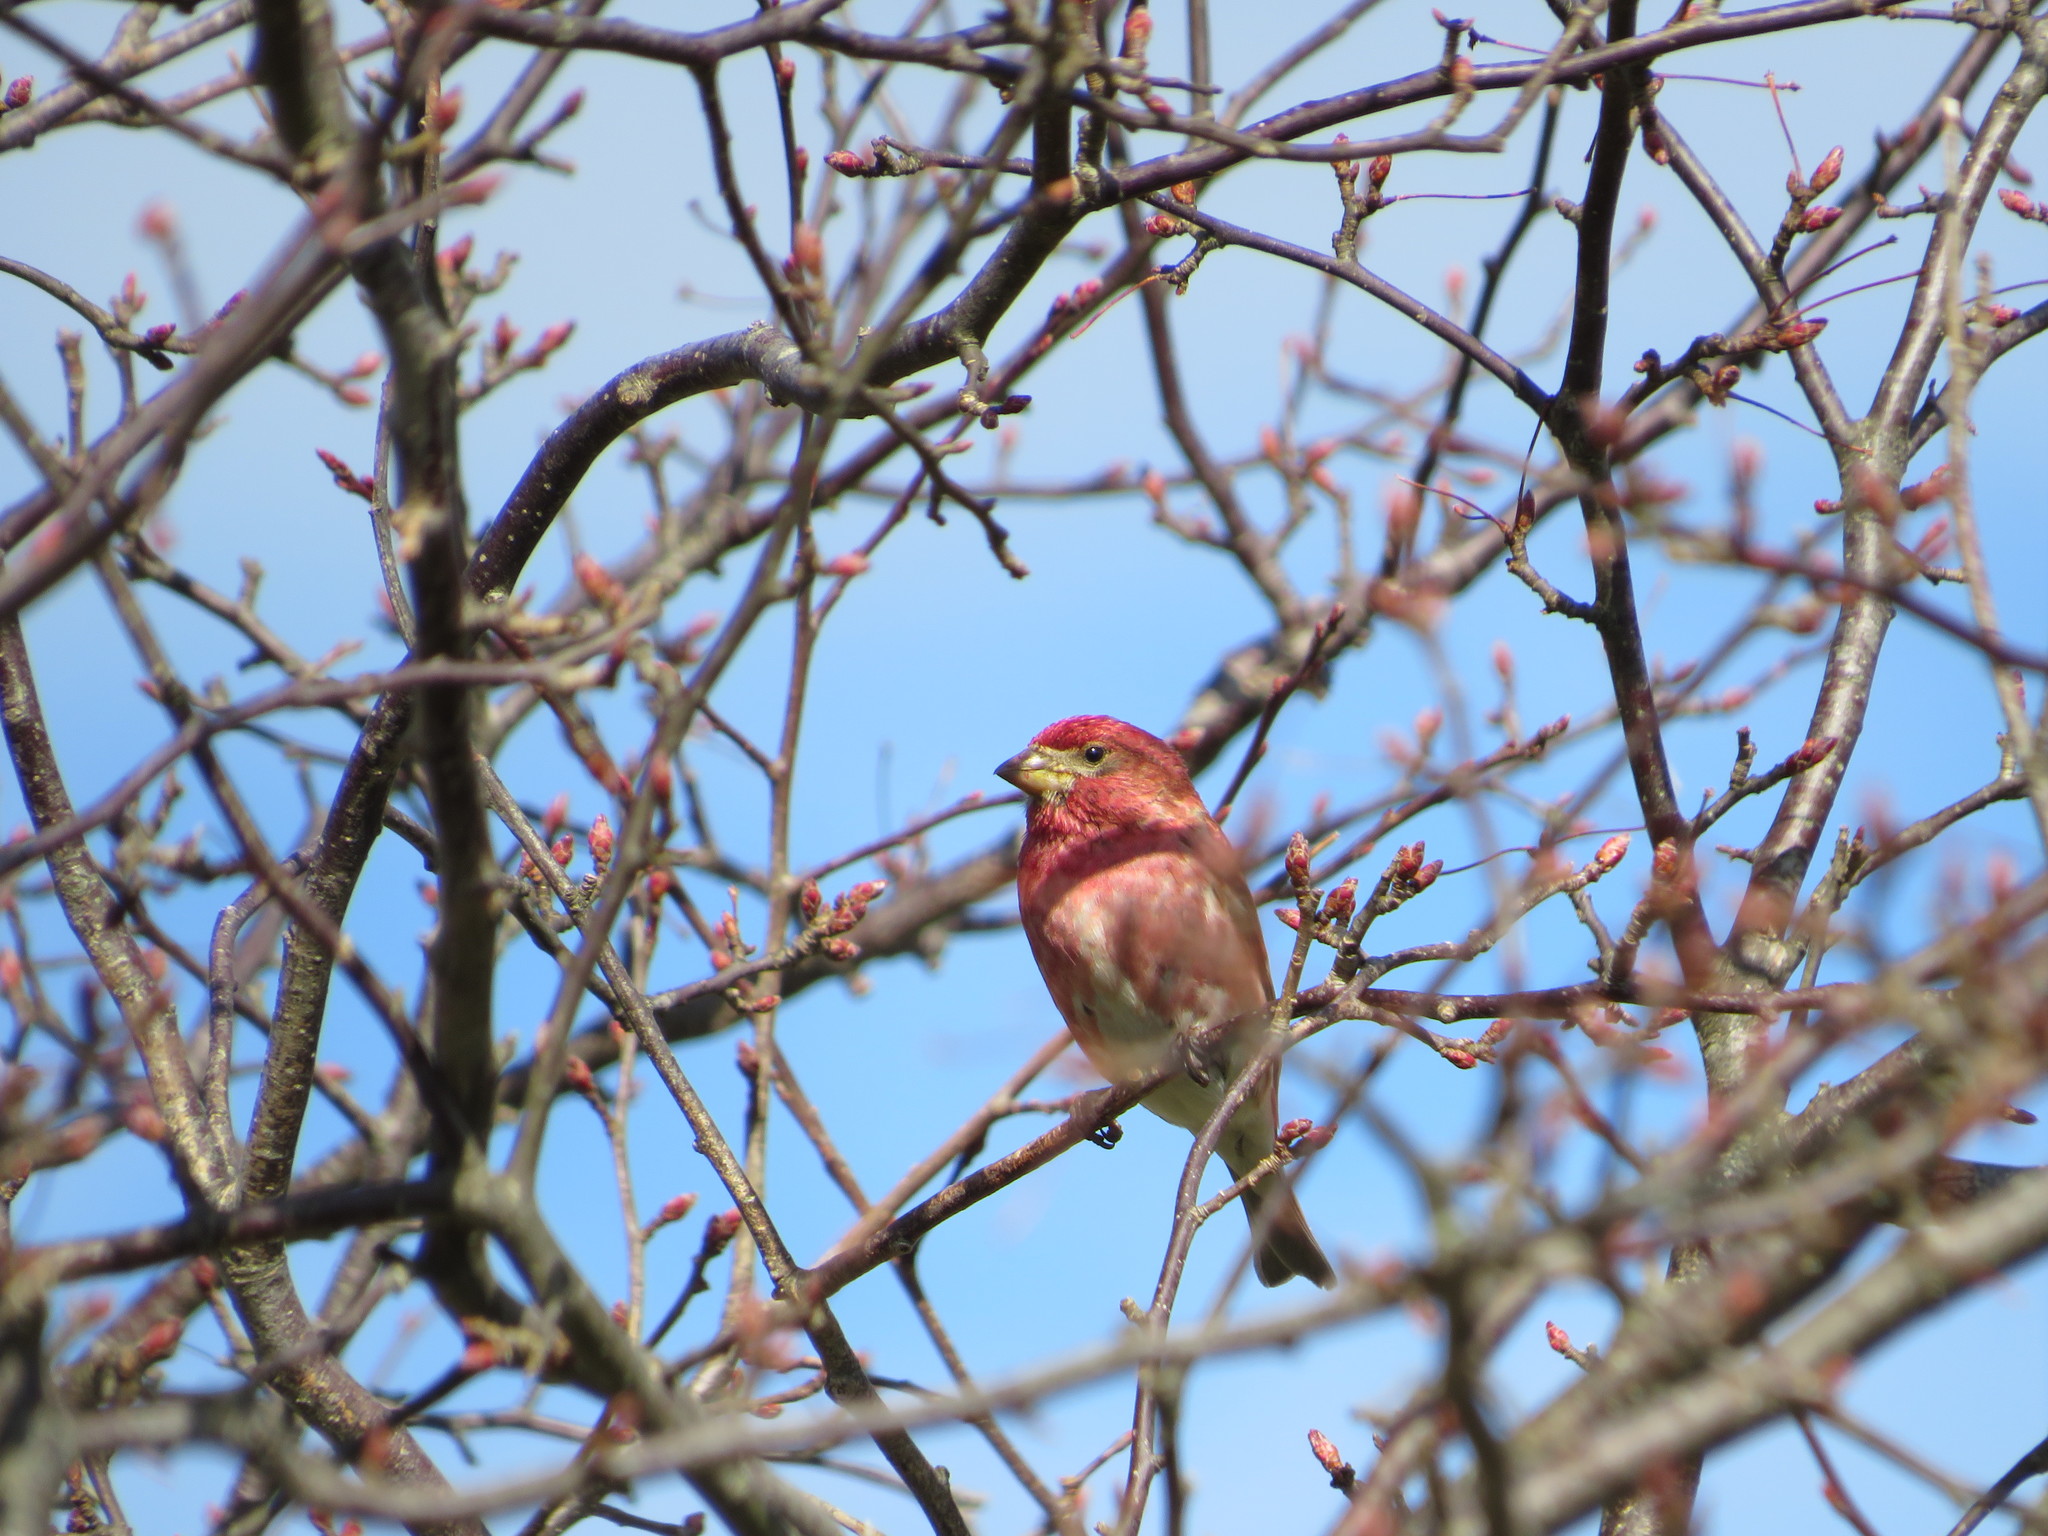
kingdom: Animalia
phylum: Chordata
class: Aves
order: Passeriformes
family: Fringillidae
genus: Haemorhous
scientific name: Haemorhous purpureus
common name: Purple finch
